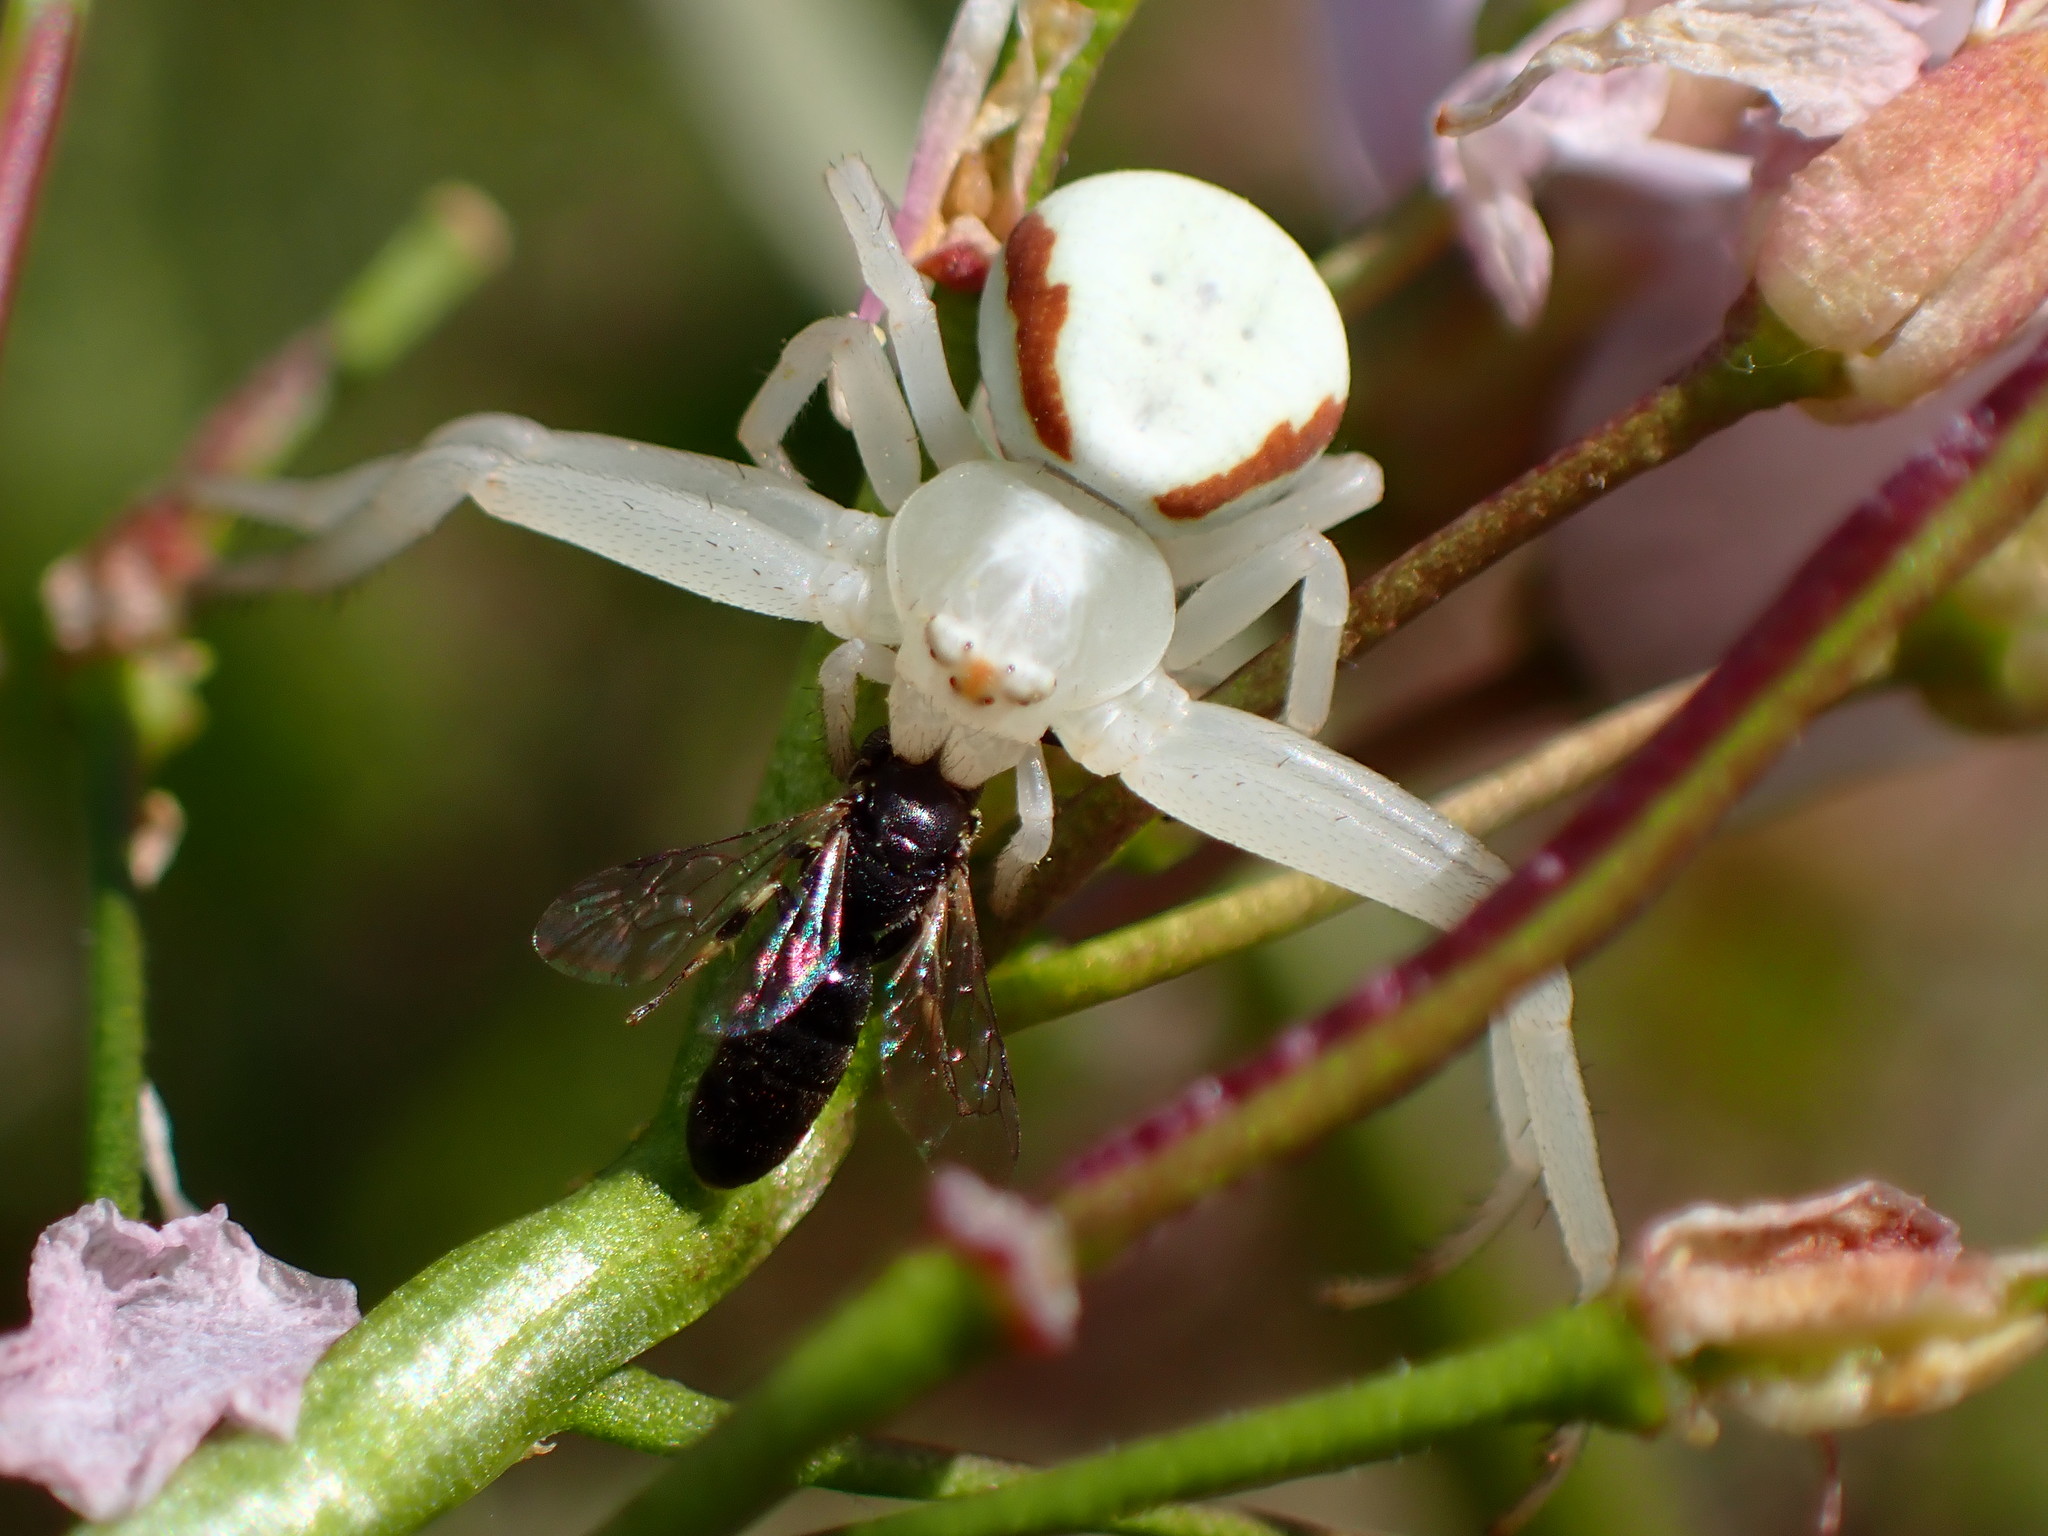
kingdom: Animalia
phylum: Arthropoda
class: Arachnida
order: Araneae
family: Thomisidae
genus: Misumena
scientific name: Misumena vatia
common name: Goldenrod crab spider
